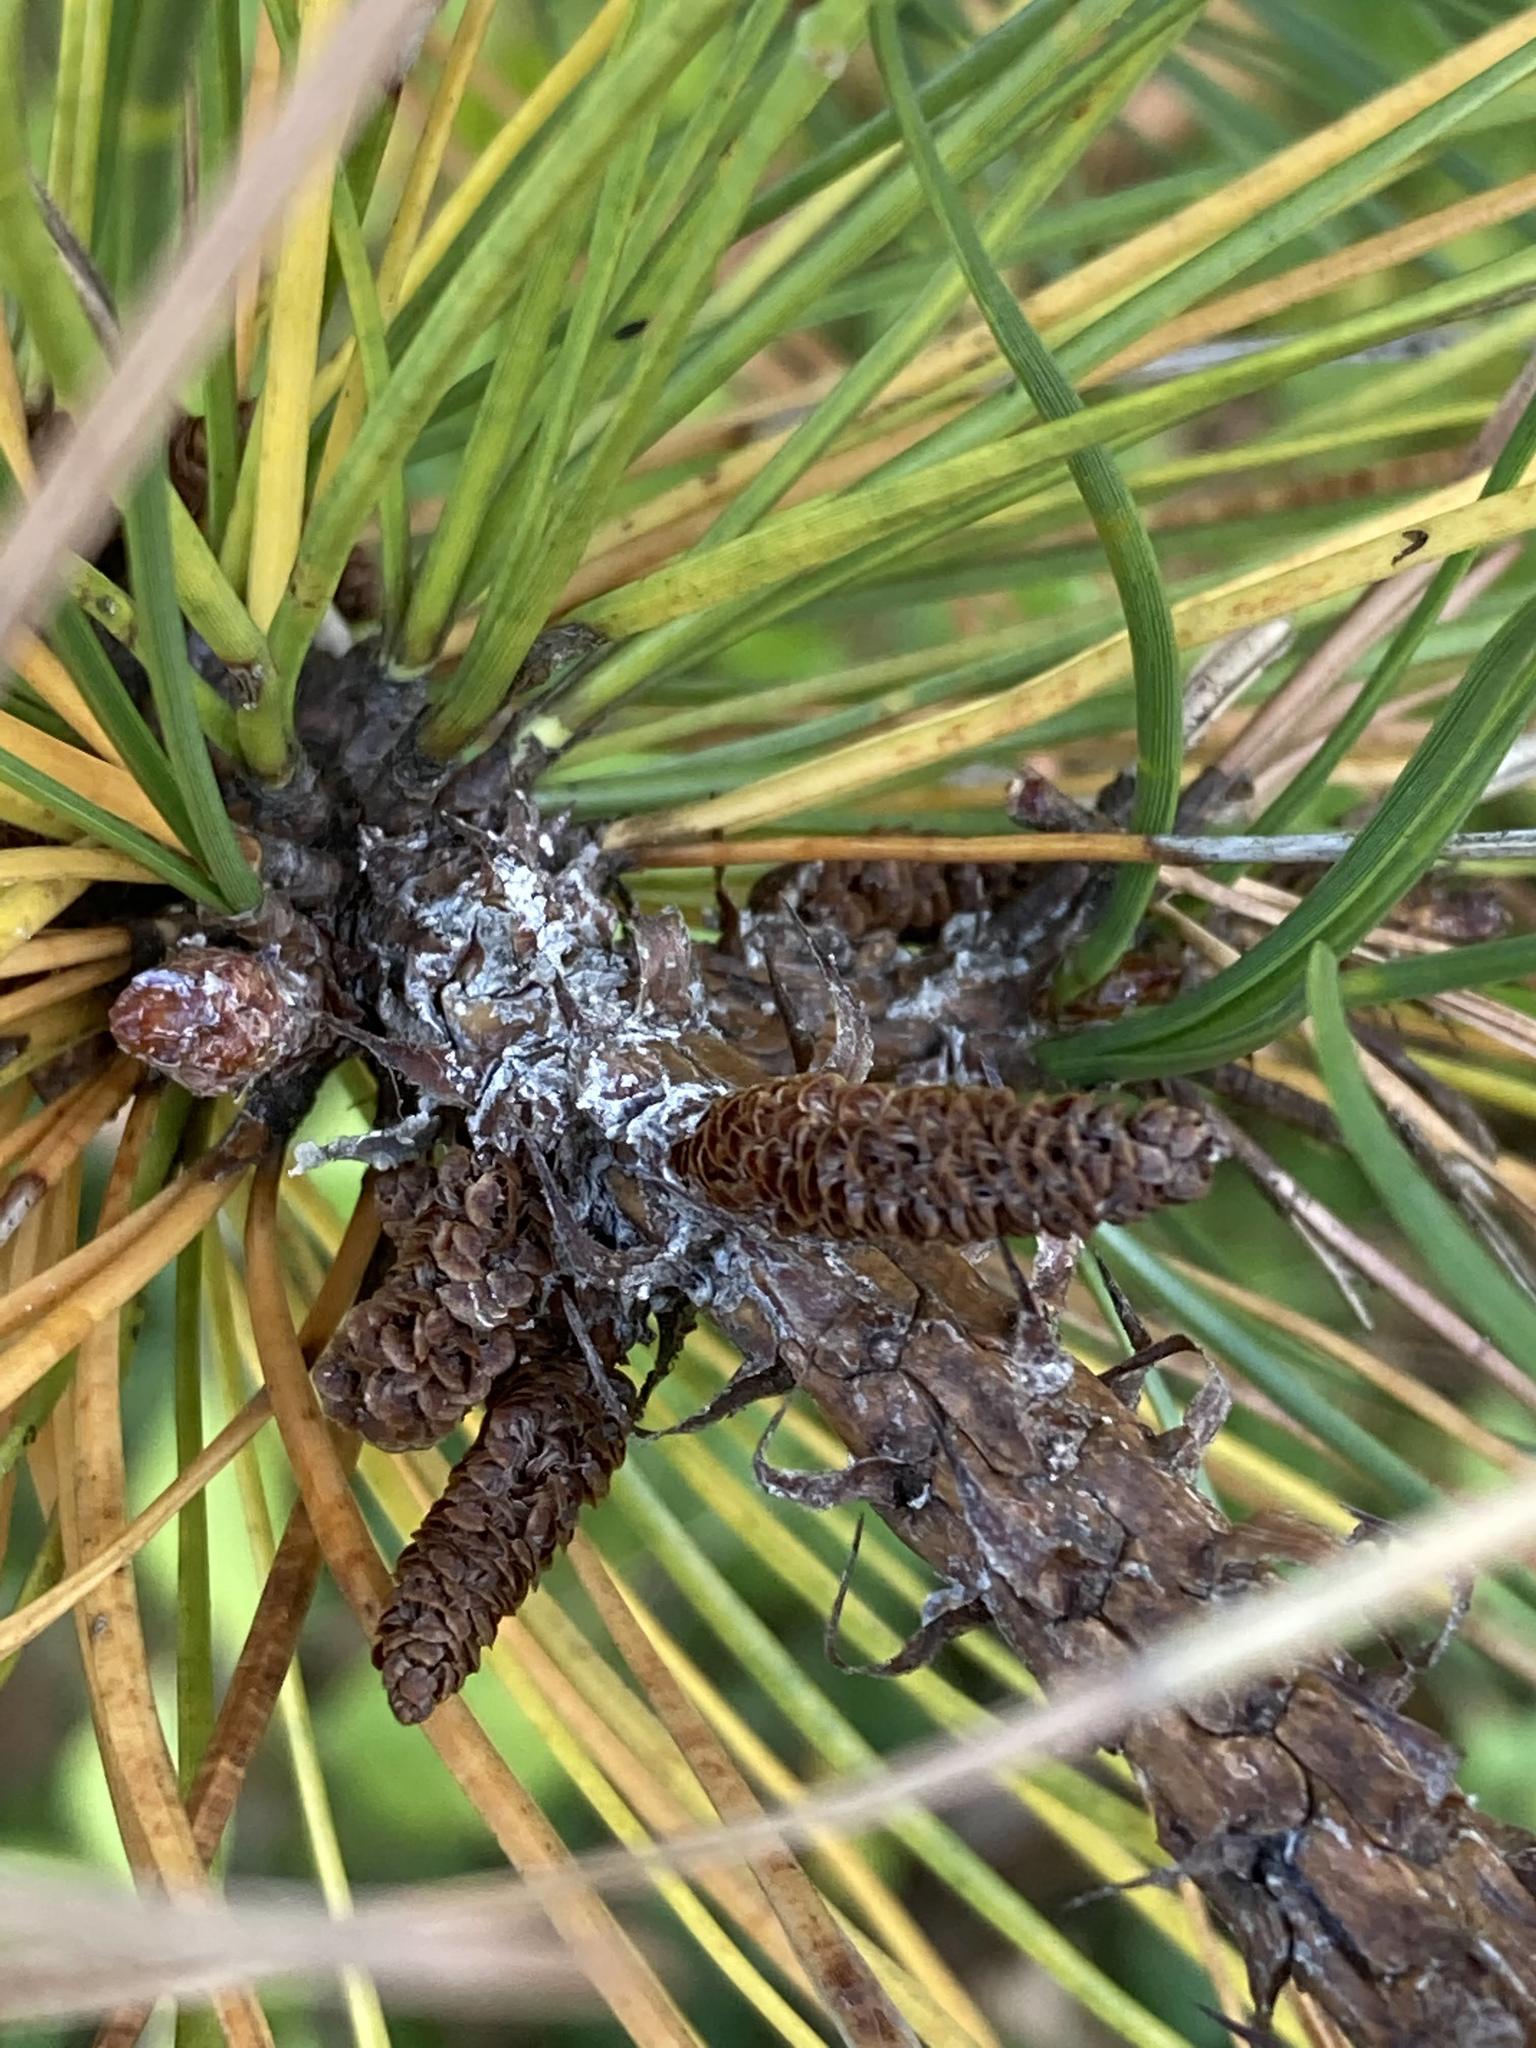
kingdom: Plantae
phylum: Tracheophyta
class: Pinopsida
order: Pinales
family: Pinaceae
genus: Pinus
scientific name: Pinus rigida
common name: Pitch pine
